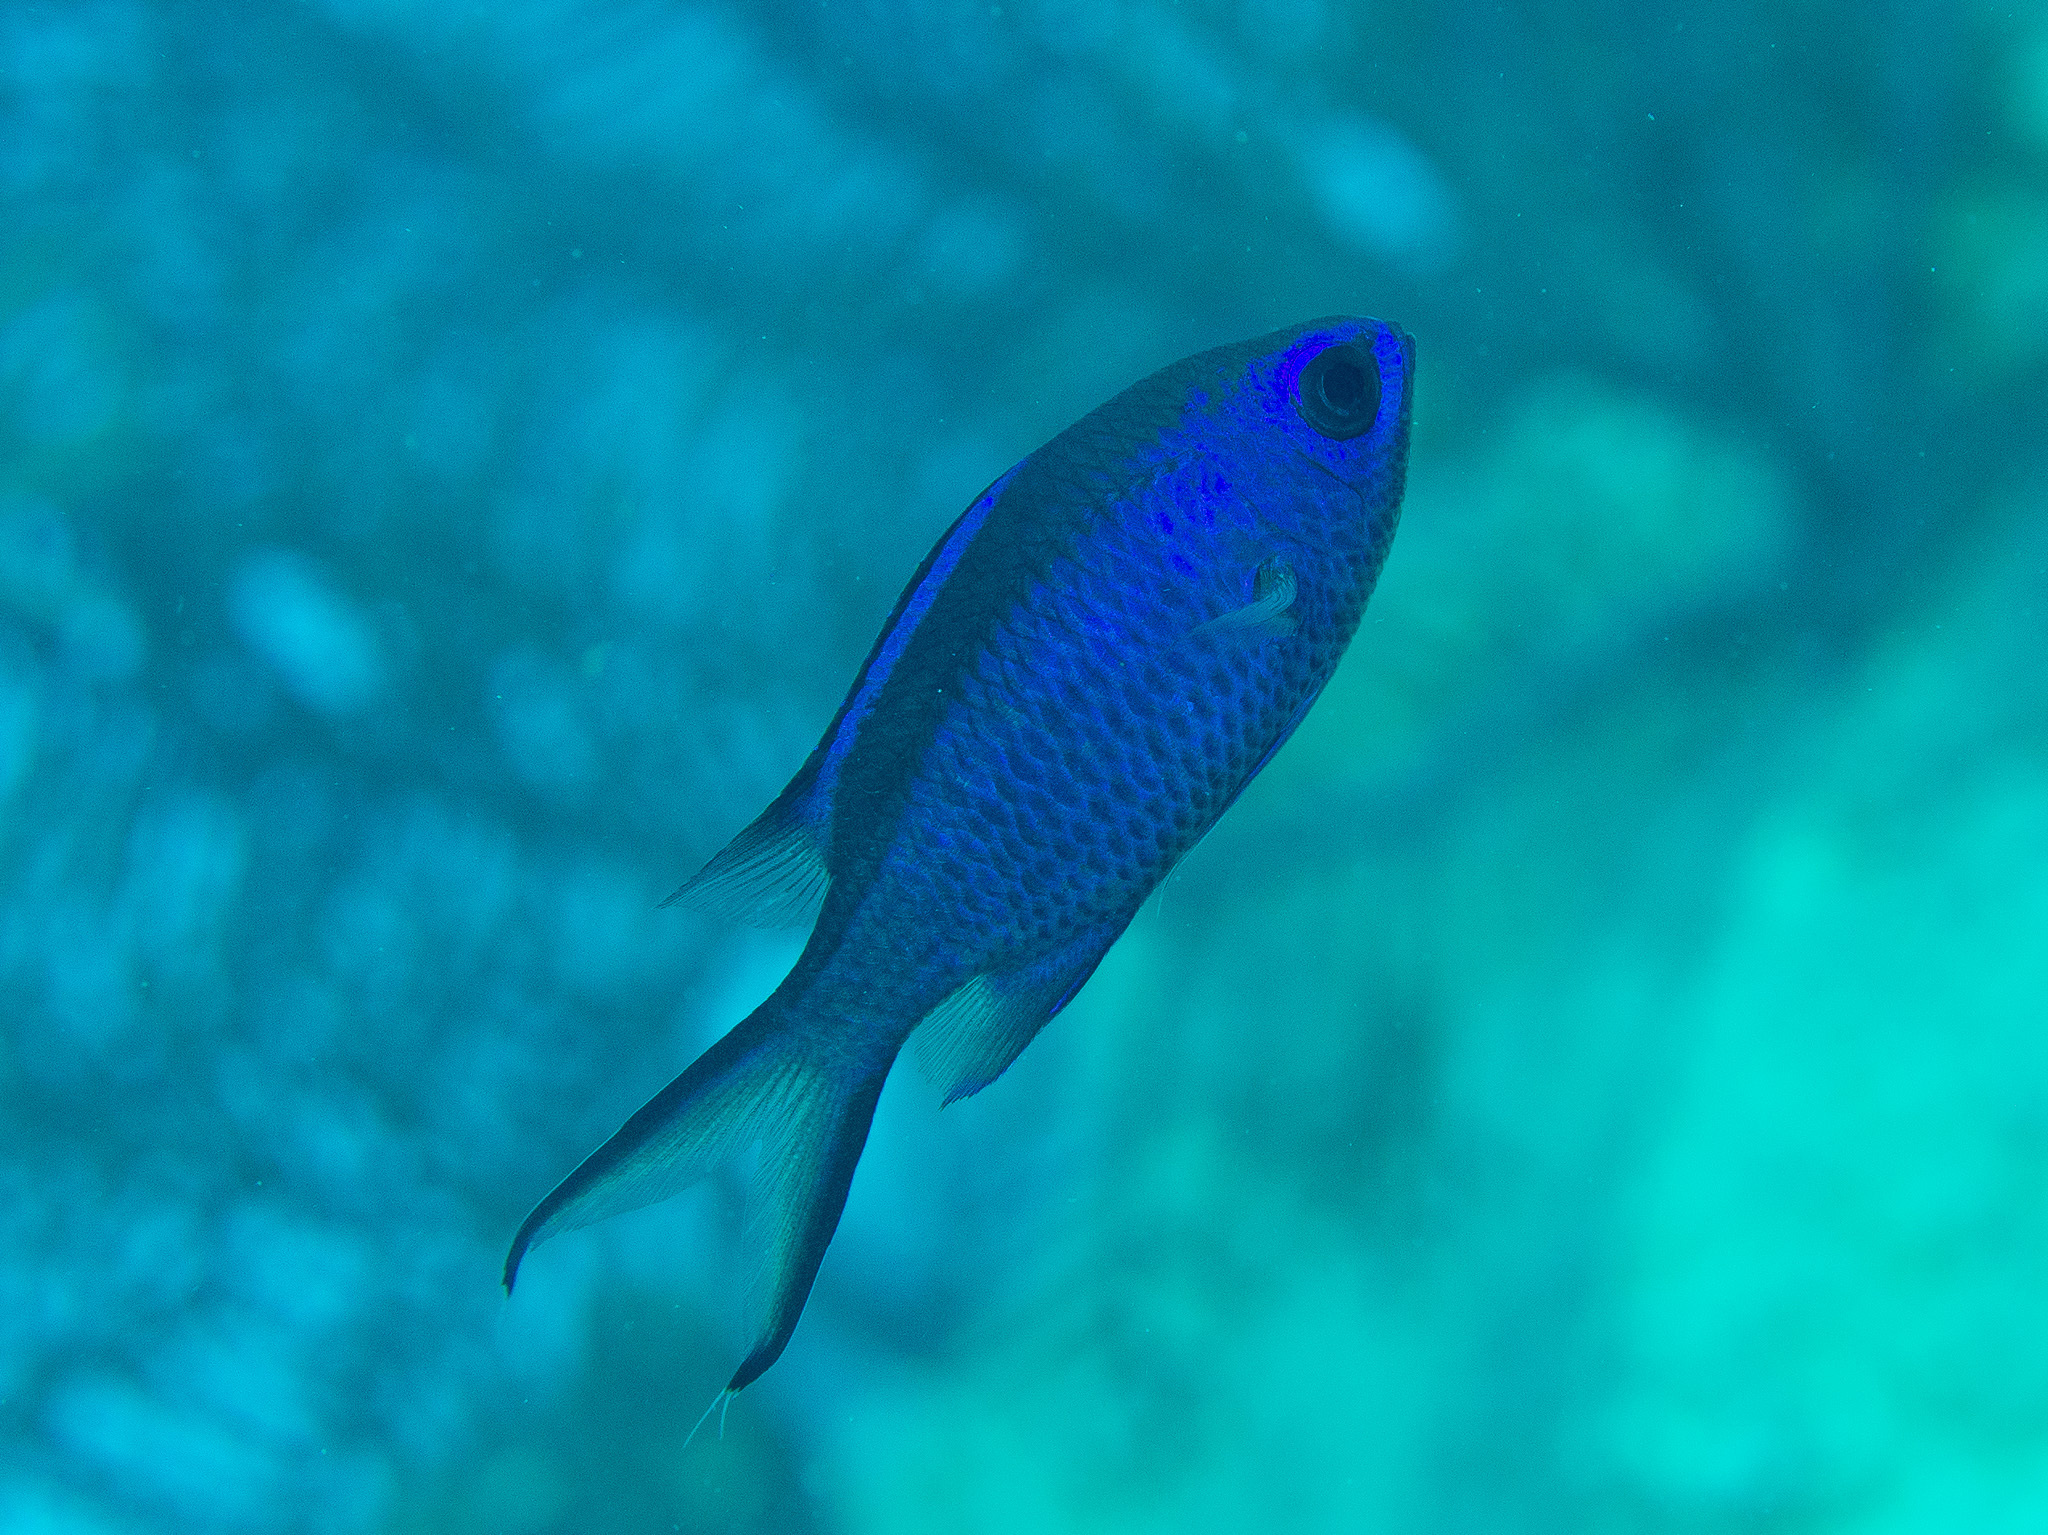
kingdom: Animalia
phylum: Chordata
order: Perciformes
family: Pomacentridae
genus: Chromis
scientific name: Chromis cyanea
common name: Blue chromis
